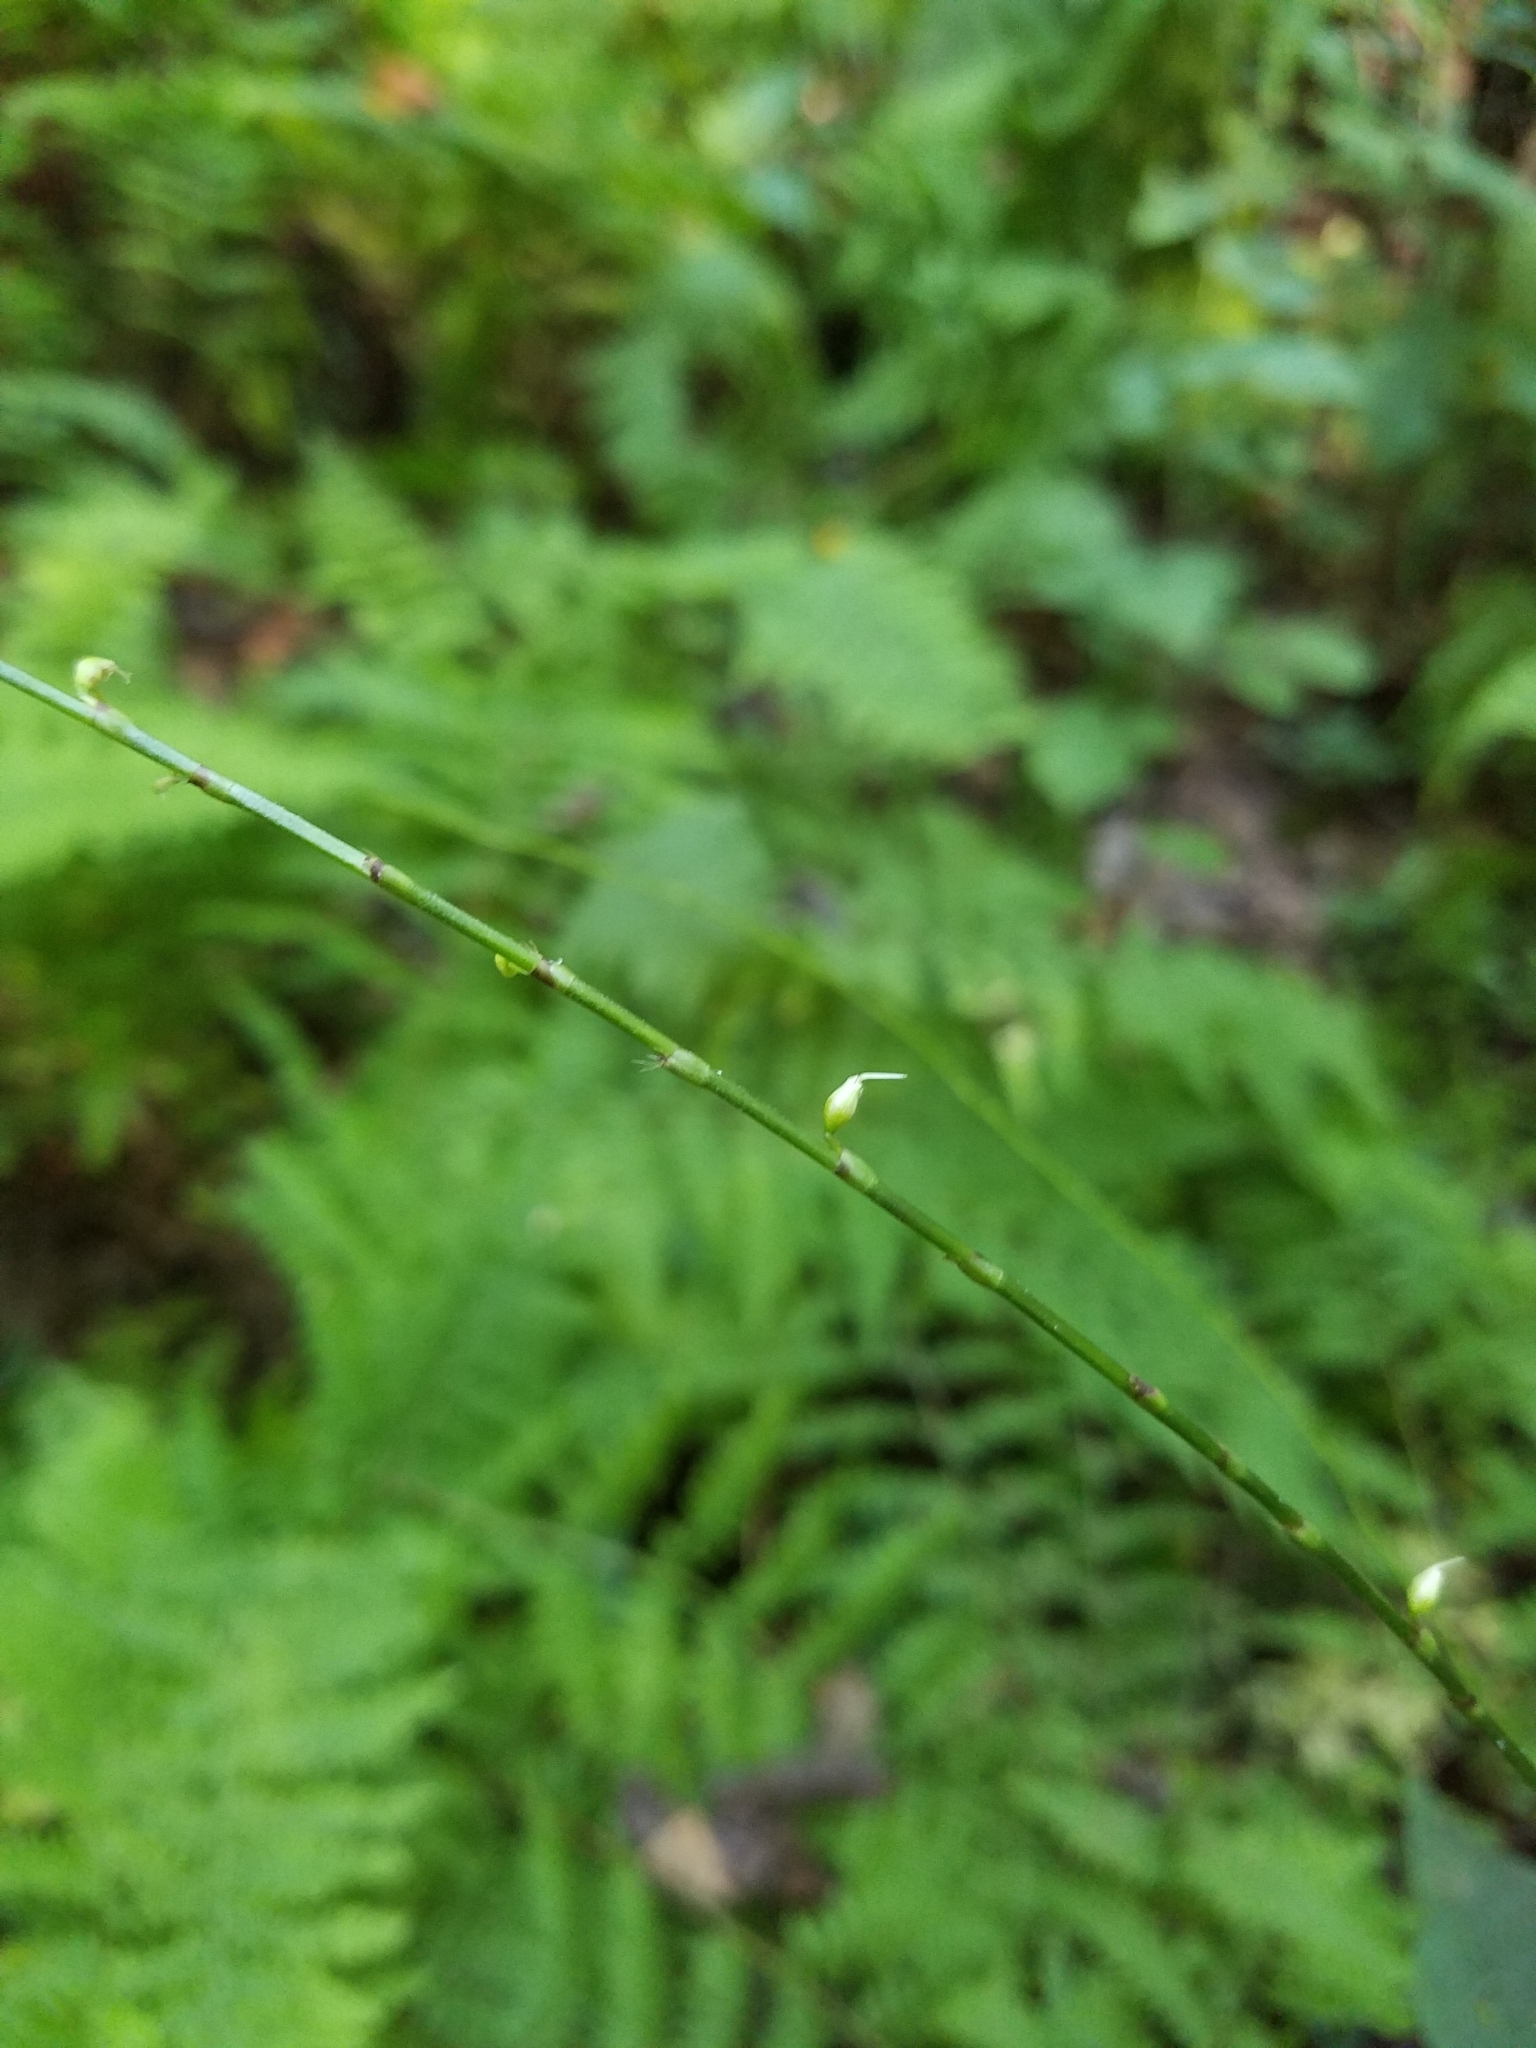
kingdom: Plantae
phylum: Tracheophyta
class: Magnoliopsida
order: Caryophyllales
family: Polygonaceae
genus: Persicaria
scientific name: Persicaria virginiana
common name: Jumpseed
